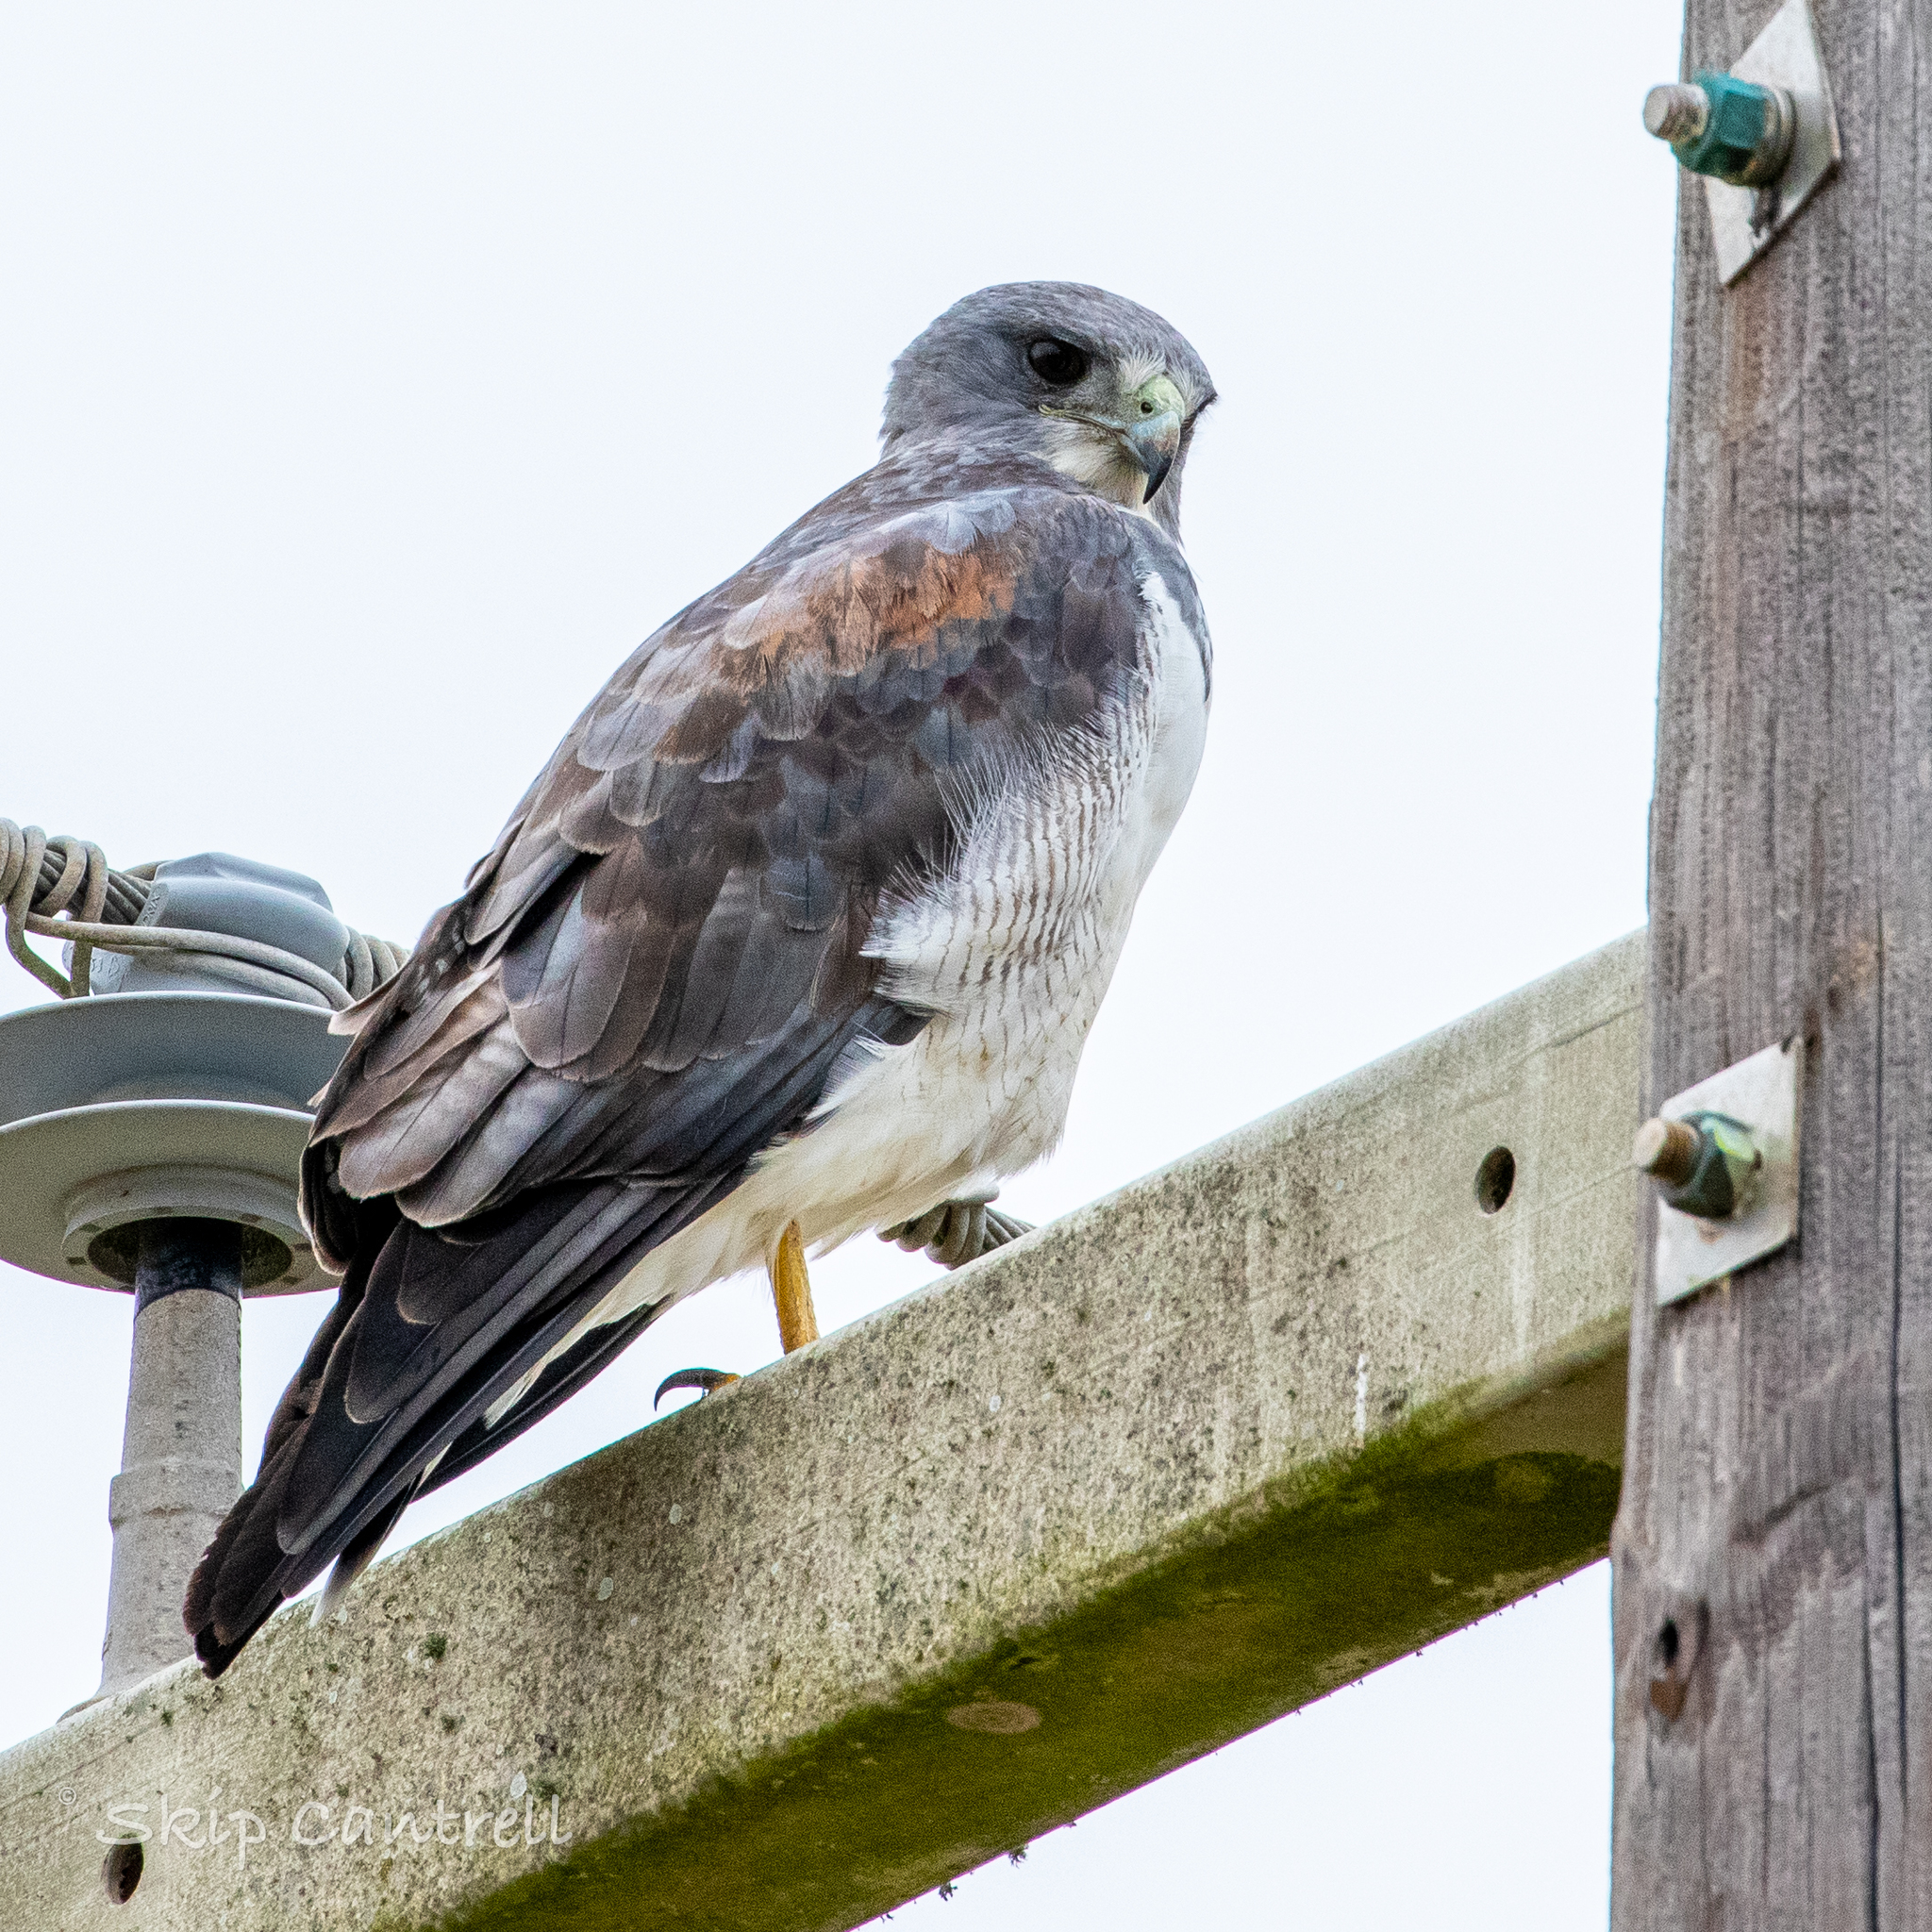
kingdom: Animalia
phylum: Chordata
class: Aves
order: Accipitriformes
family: Accipitridae
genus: Buteo
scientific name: Buteo albicaudatus
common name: White-tailed hawk
